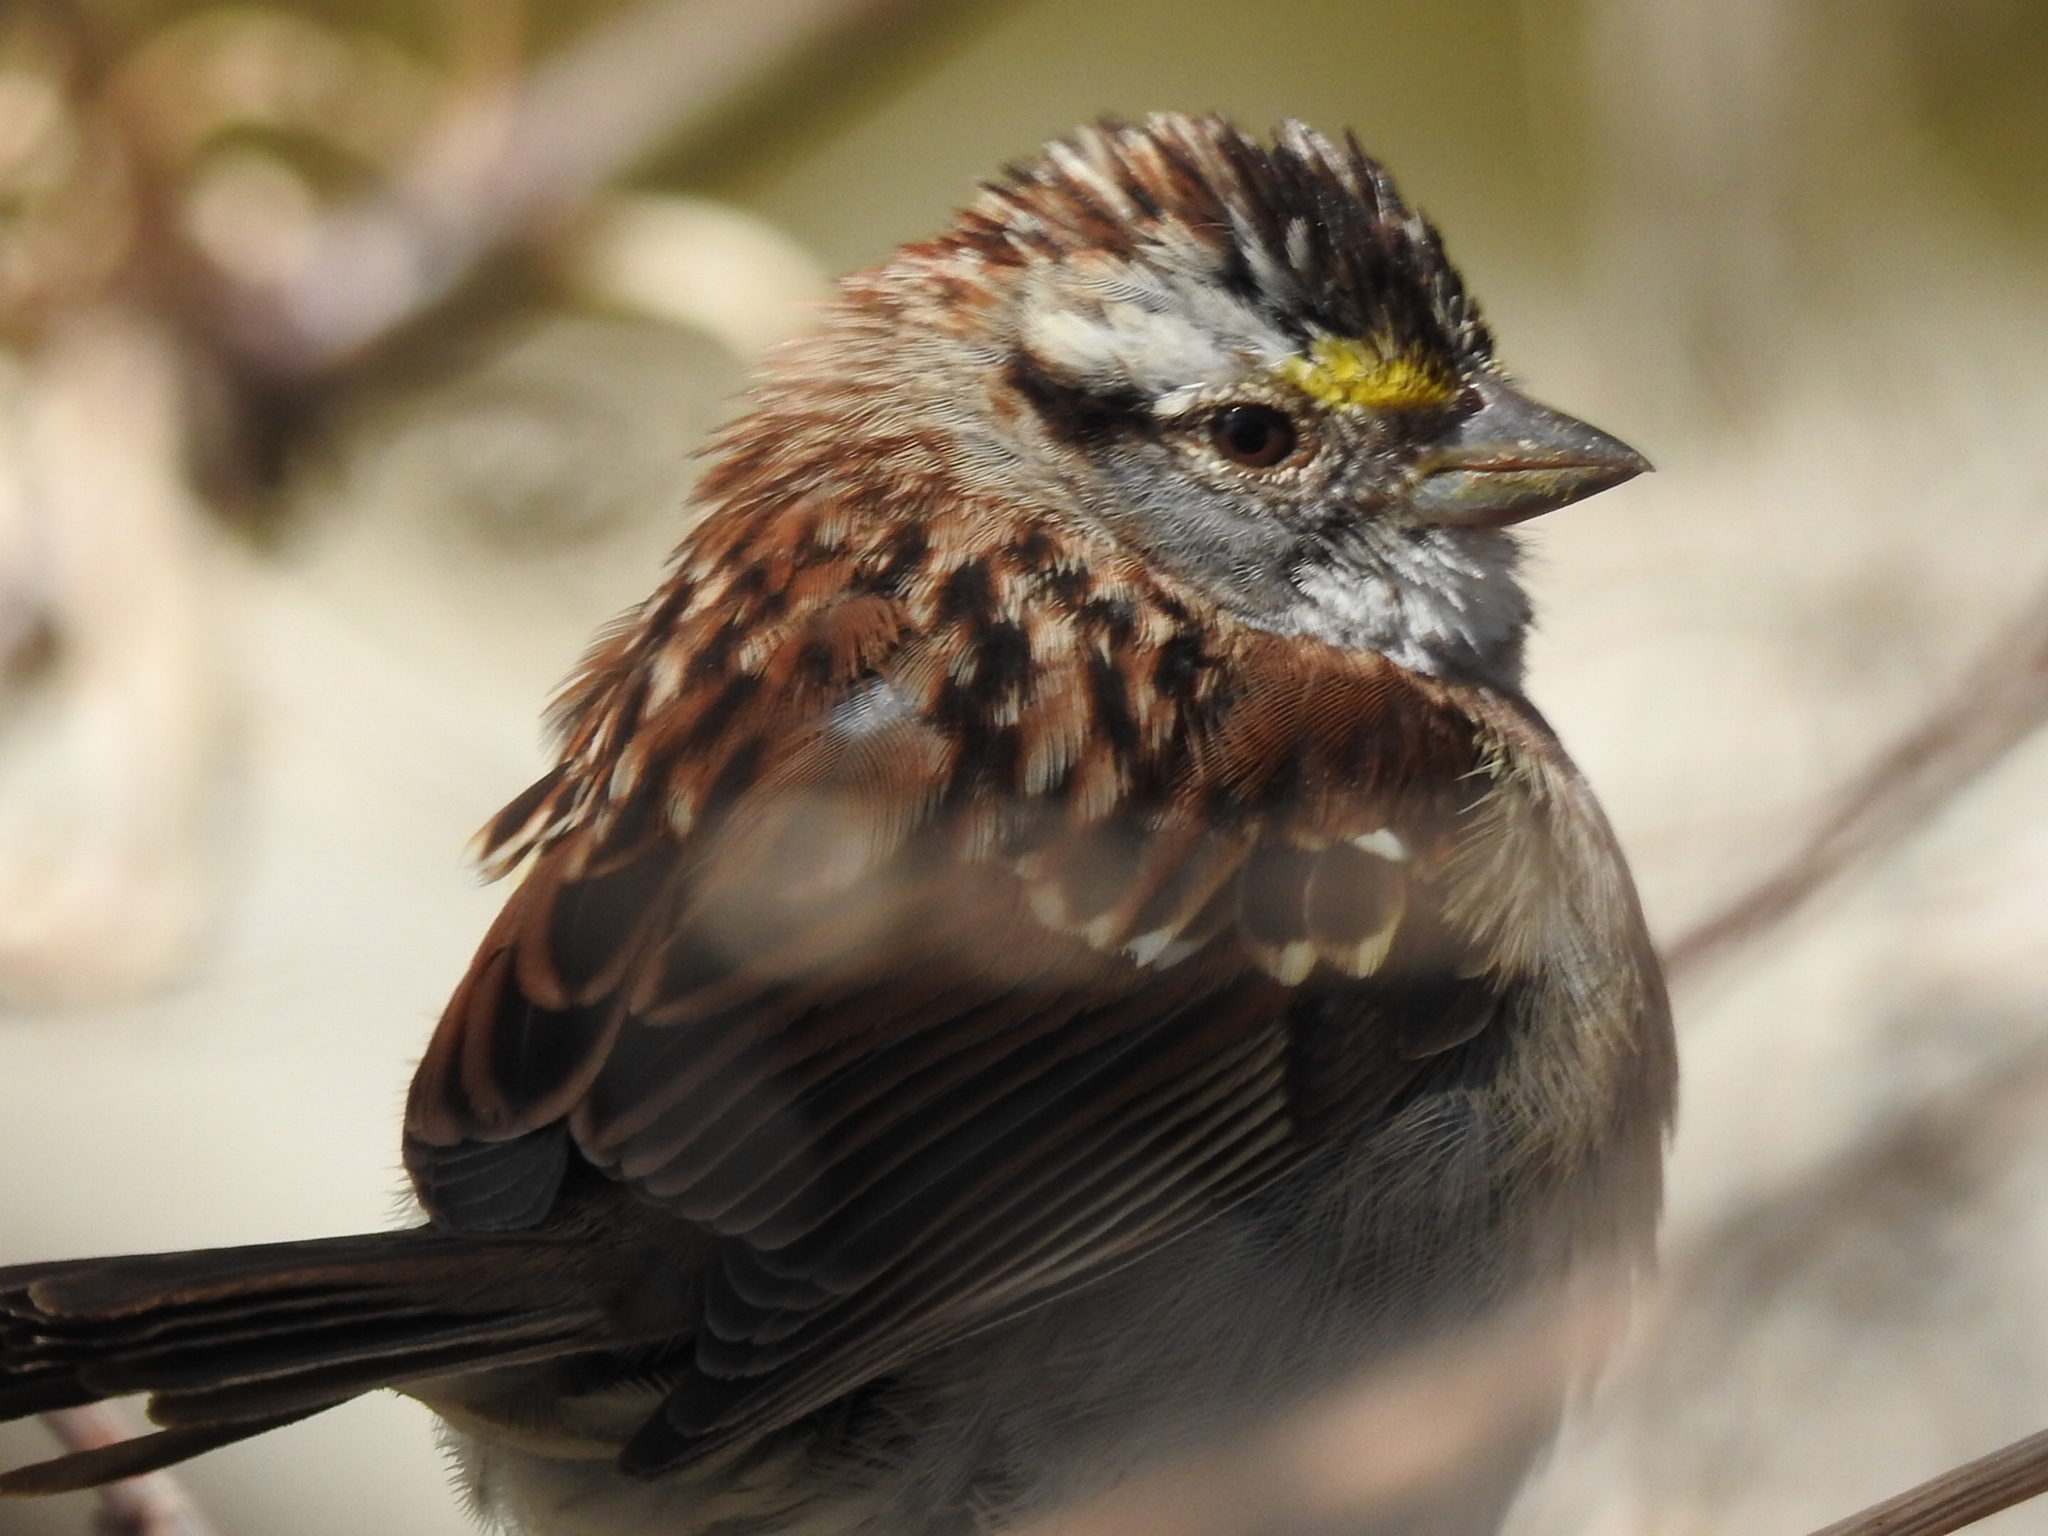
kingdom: Animalia
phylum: Chordata
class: Aves
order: Passeriformes
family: Passerellidae
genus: Zonotrichia
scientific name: Zonotrichia albicollis
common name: White-throated sparrow
